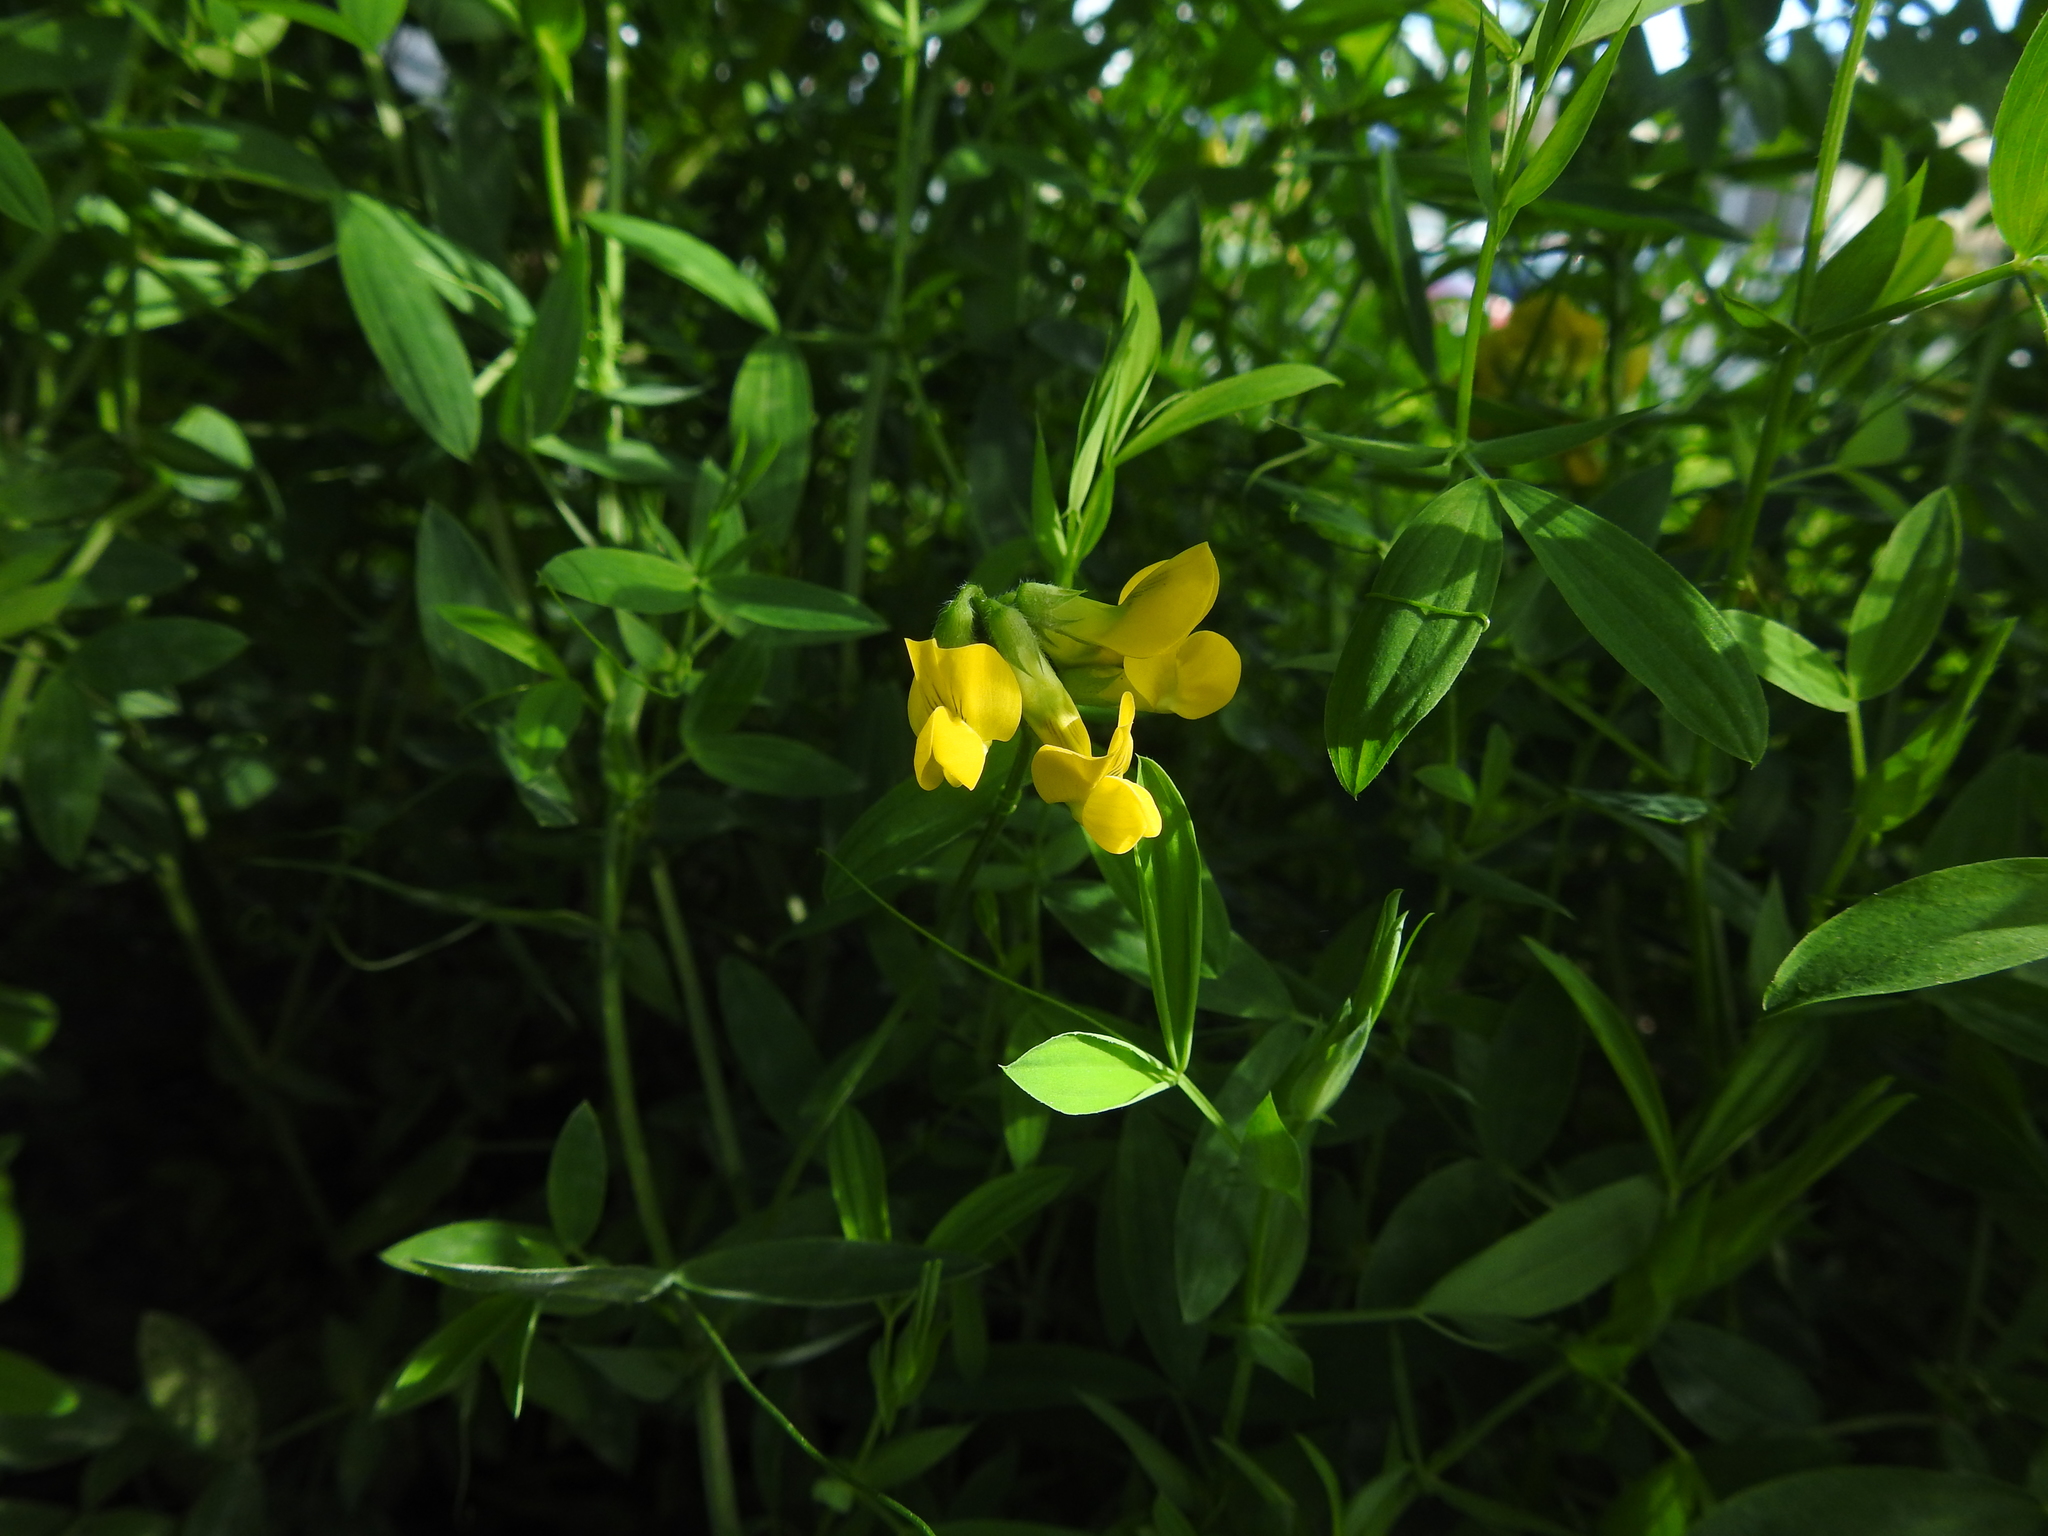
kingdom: Plantae
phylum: Tracheophyta
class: Magnoliopsida
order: Fabales
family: Fabaceae
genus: Lathyrus
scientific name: Lathyrus pratensis
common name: Meadow vetchling
